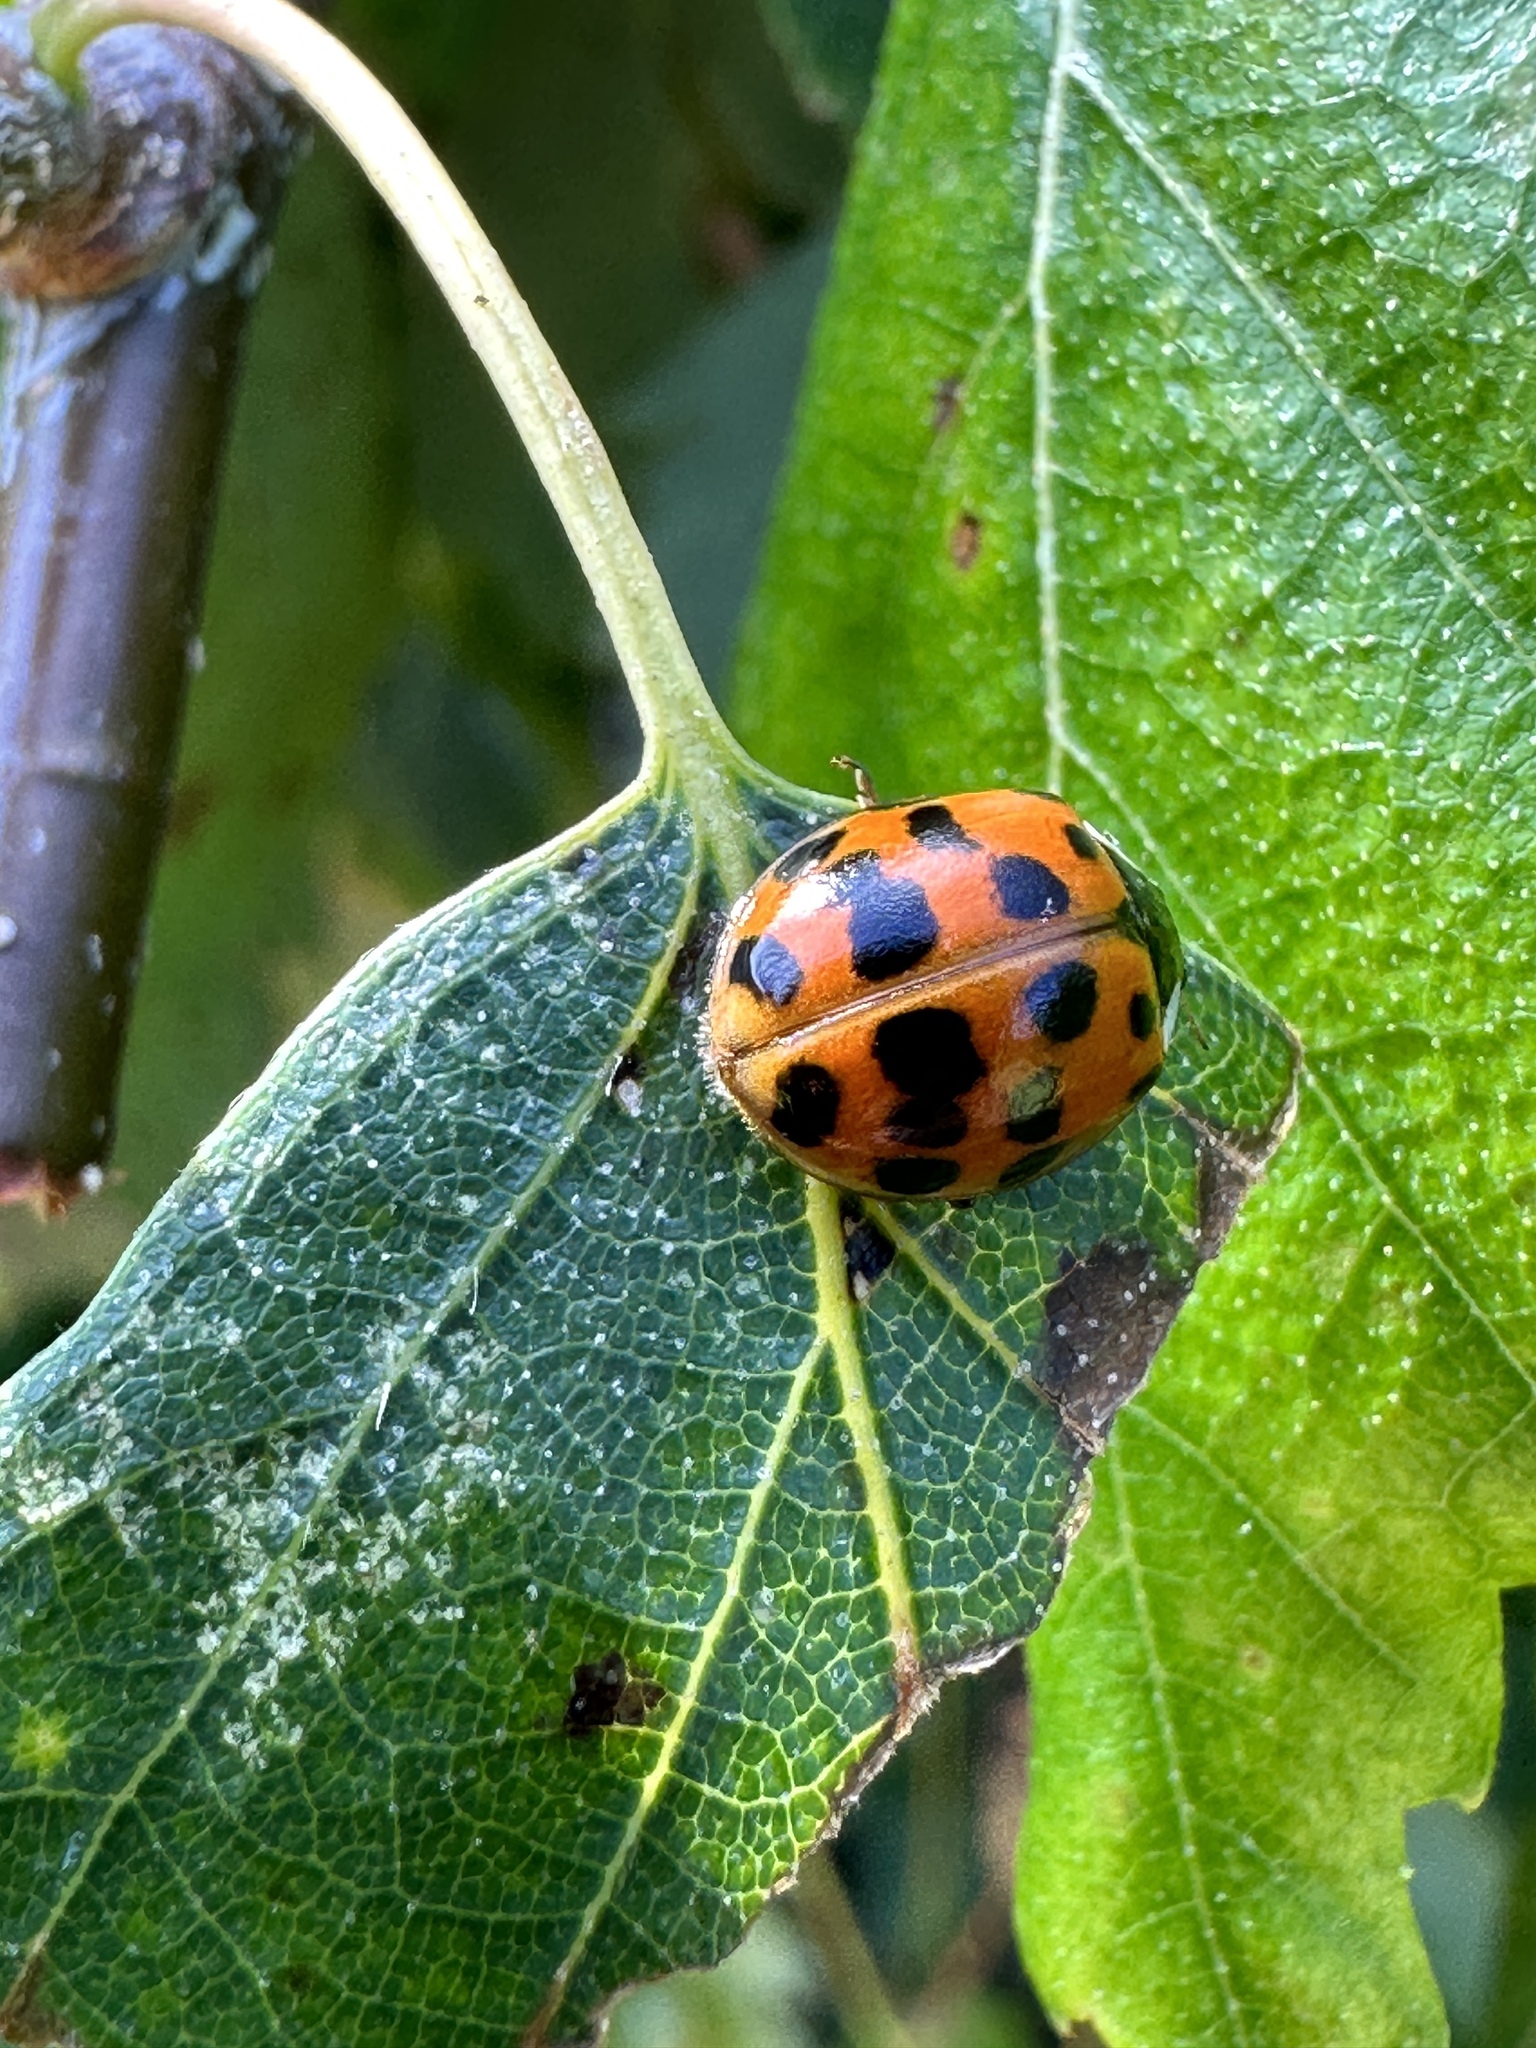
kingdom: Animalia
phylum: Arthropoda
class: Insecta
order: Coleoptera
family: Coccinellidae
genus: Harmonia
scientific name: Harmonia axyridis
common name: Harlequin ladybird
